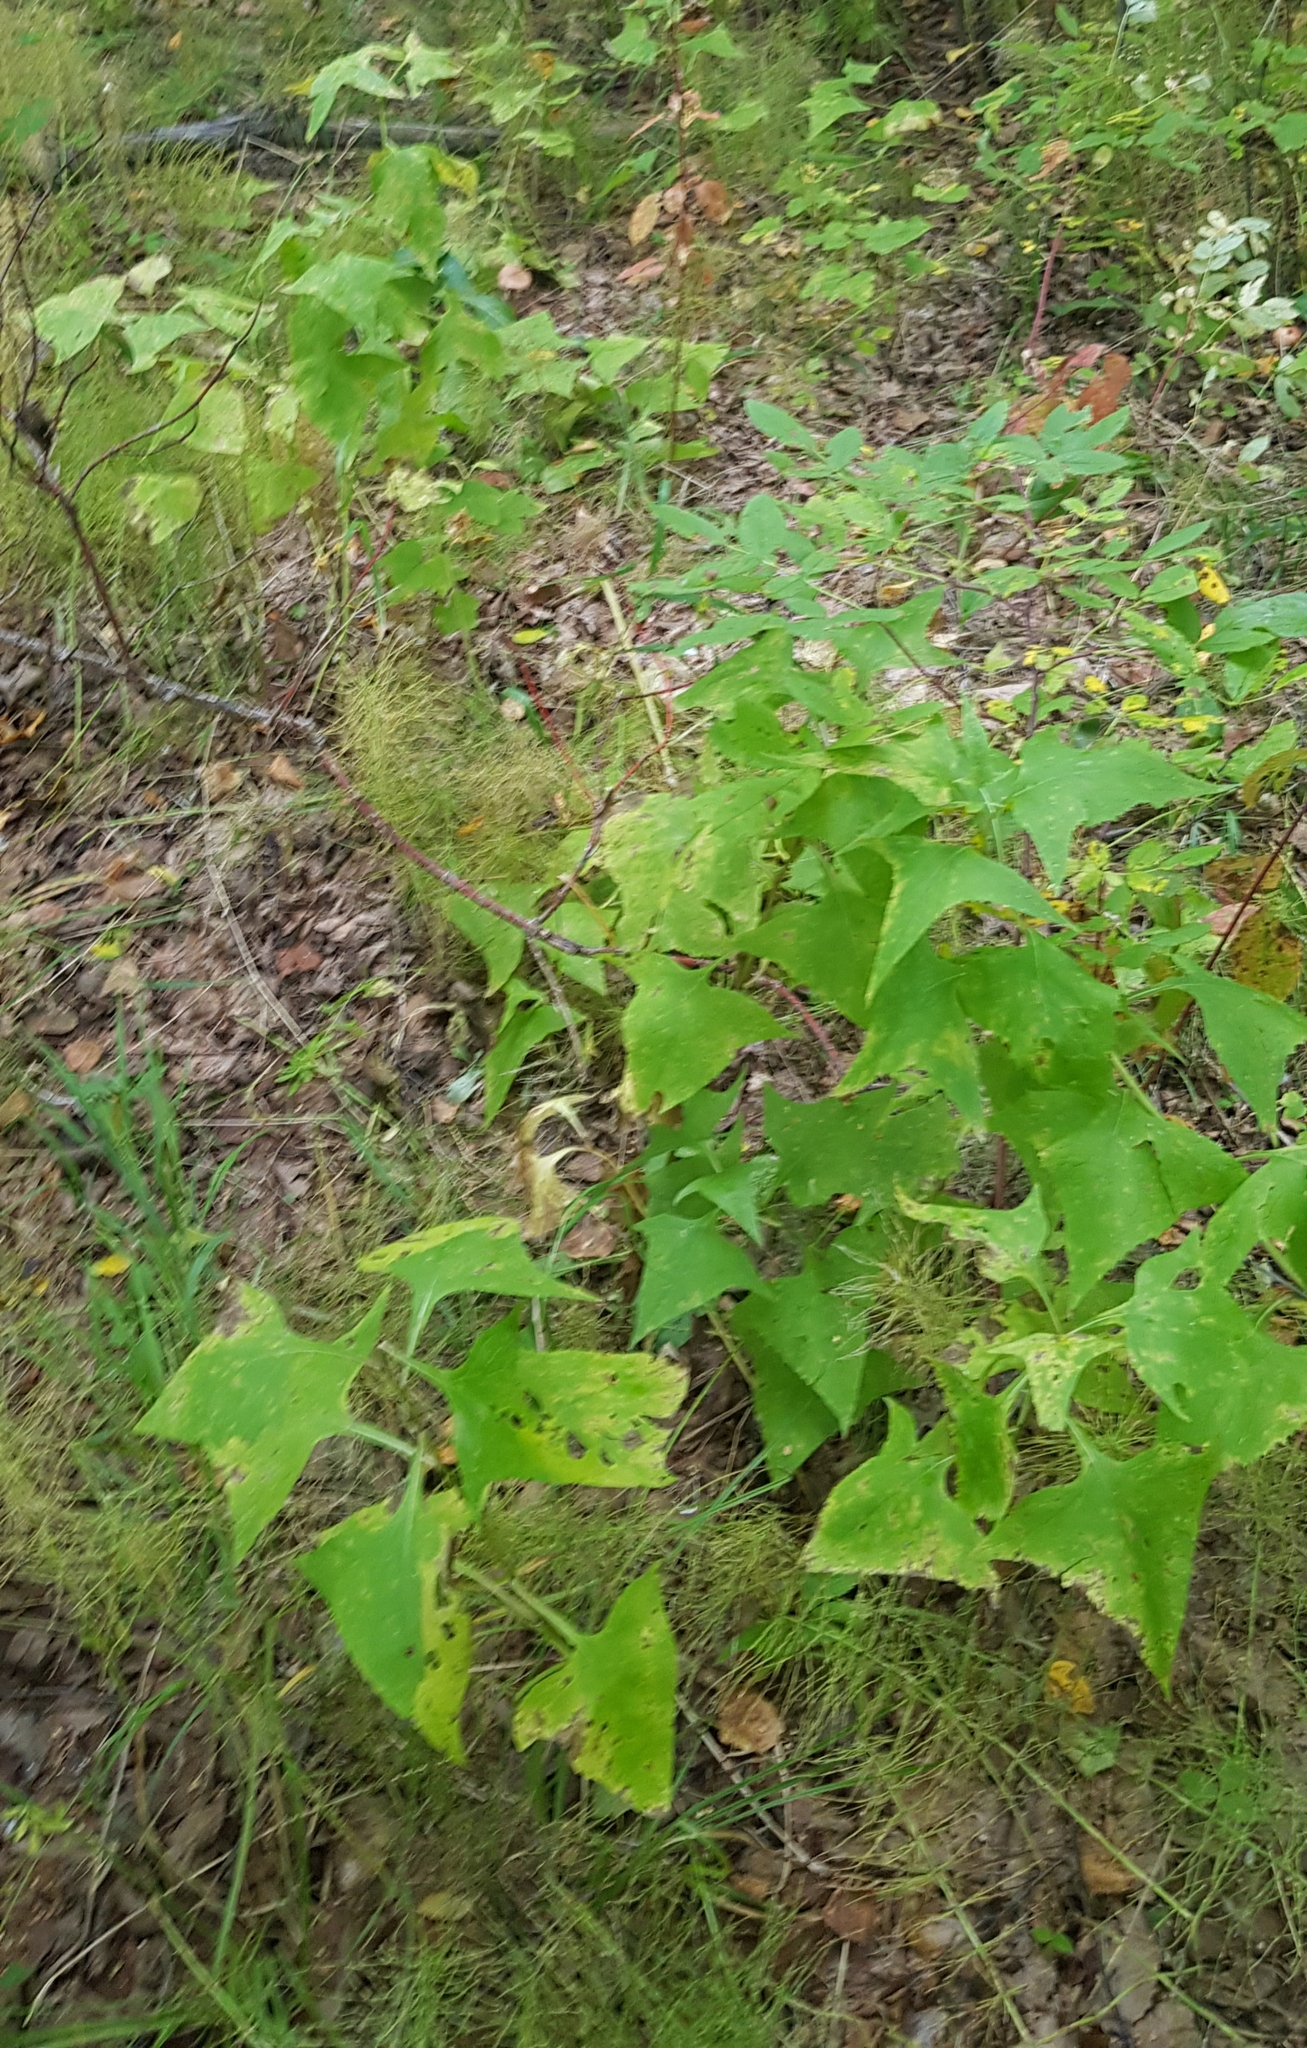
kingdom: Plantae
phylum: Tracheophyta
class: Magnoliopsida
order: Asterales
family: Asteraceae
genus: Parasenecio
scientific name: Parasenecio hastatus
